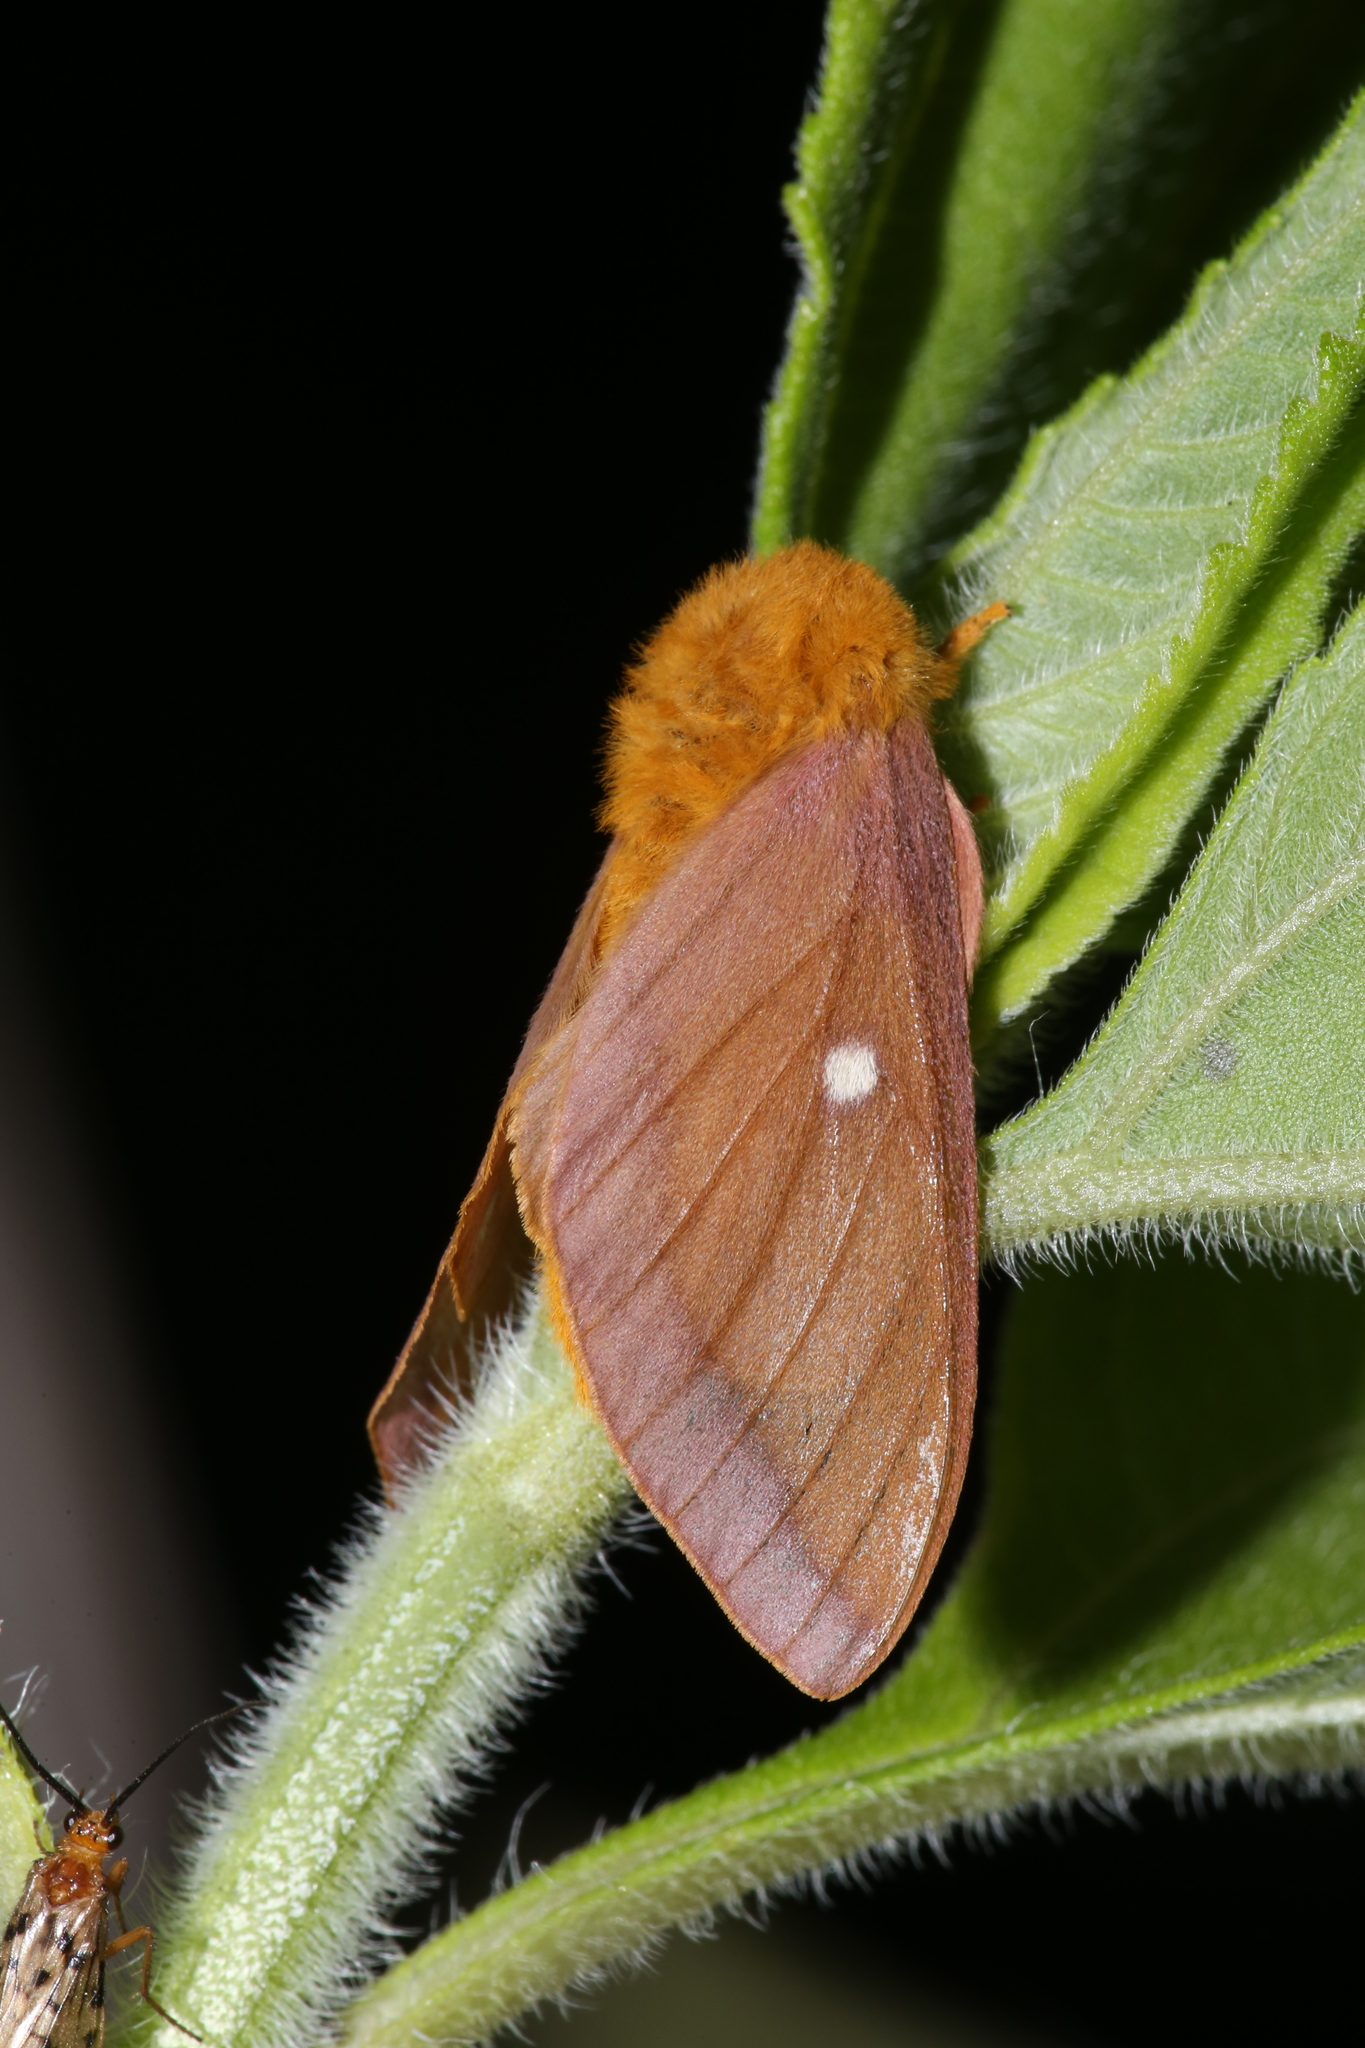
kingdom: Animalia
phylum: Arthropoda
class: Insecta
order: Lepidoptera
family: Saturniidae
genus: Anisota
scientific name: Anisota virginiensis
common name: Pink striped oakworm moth
